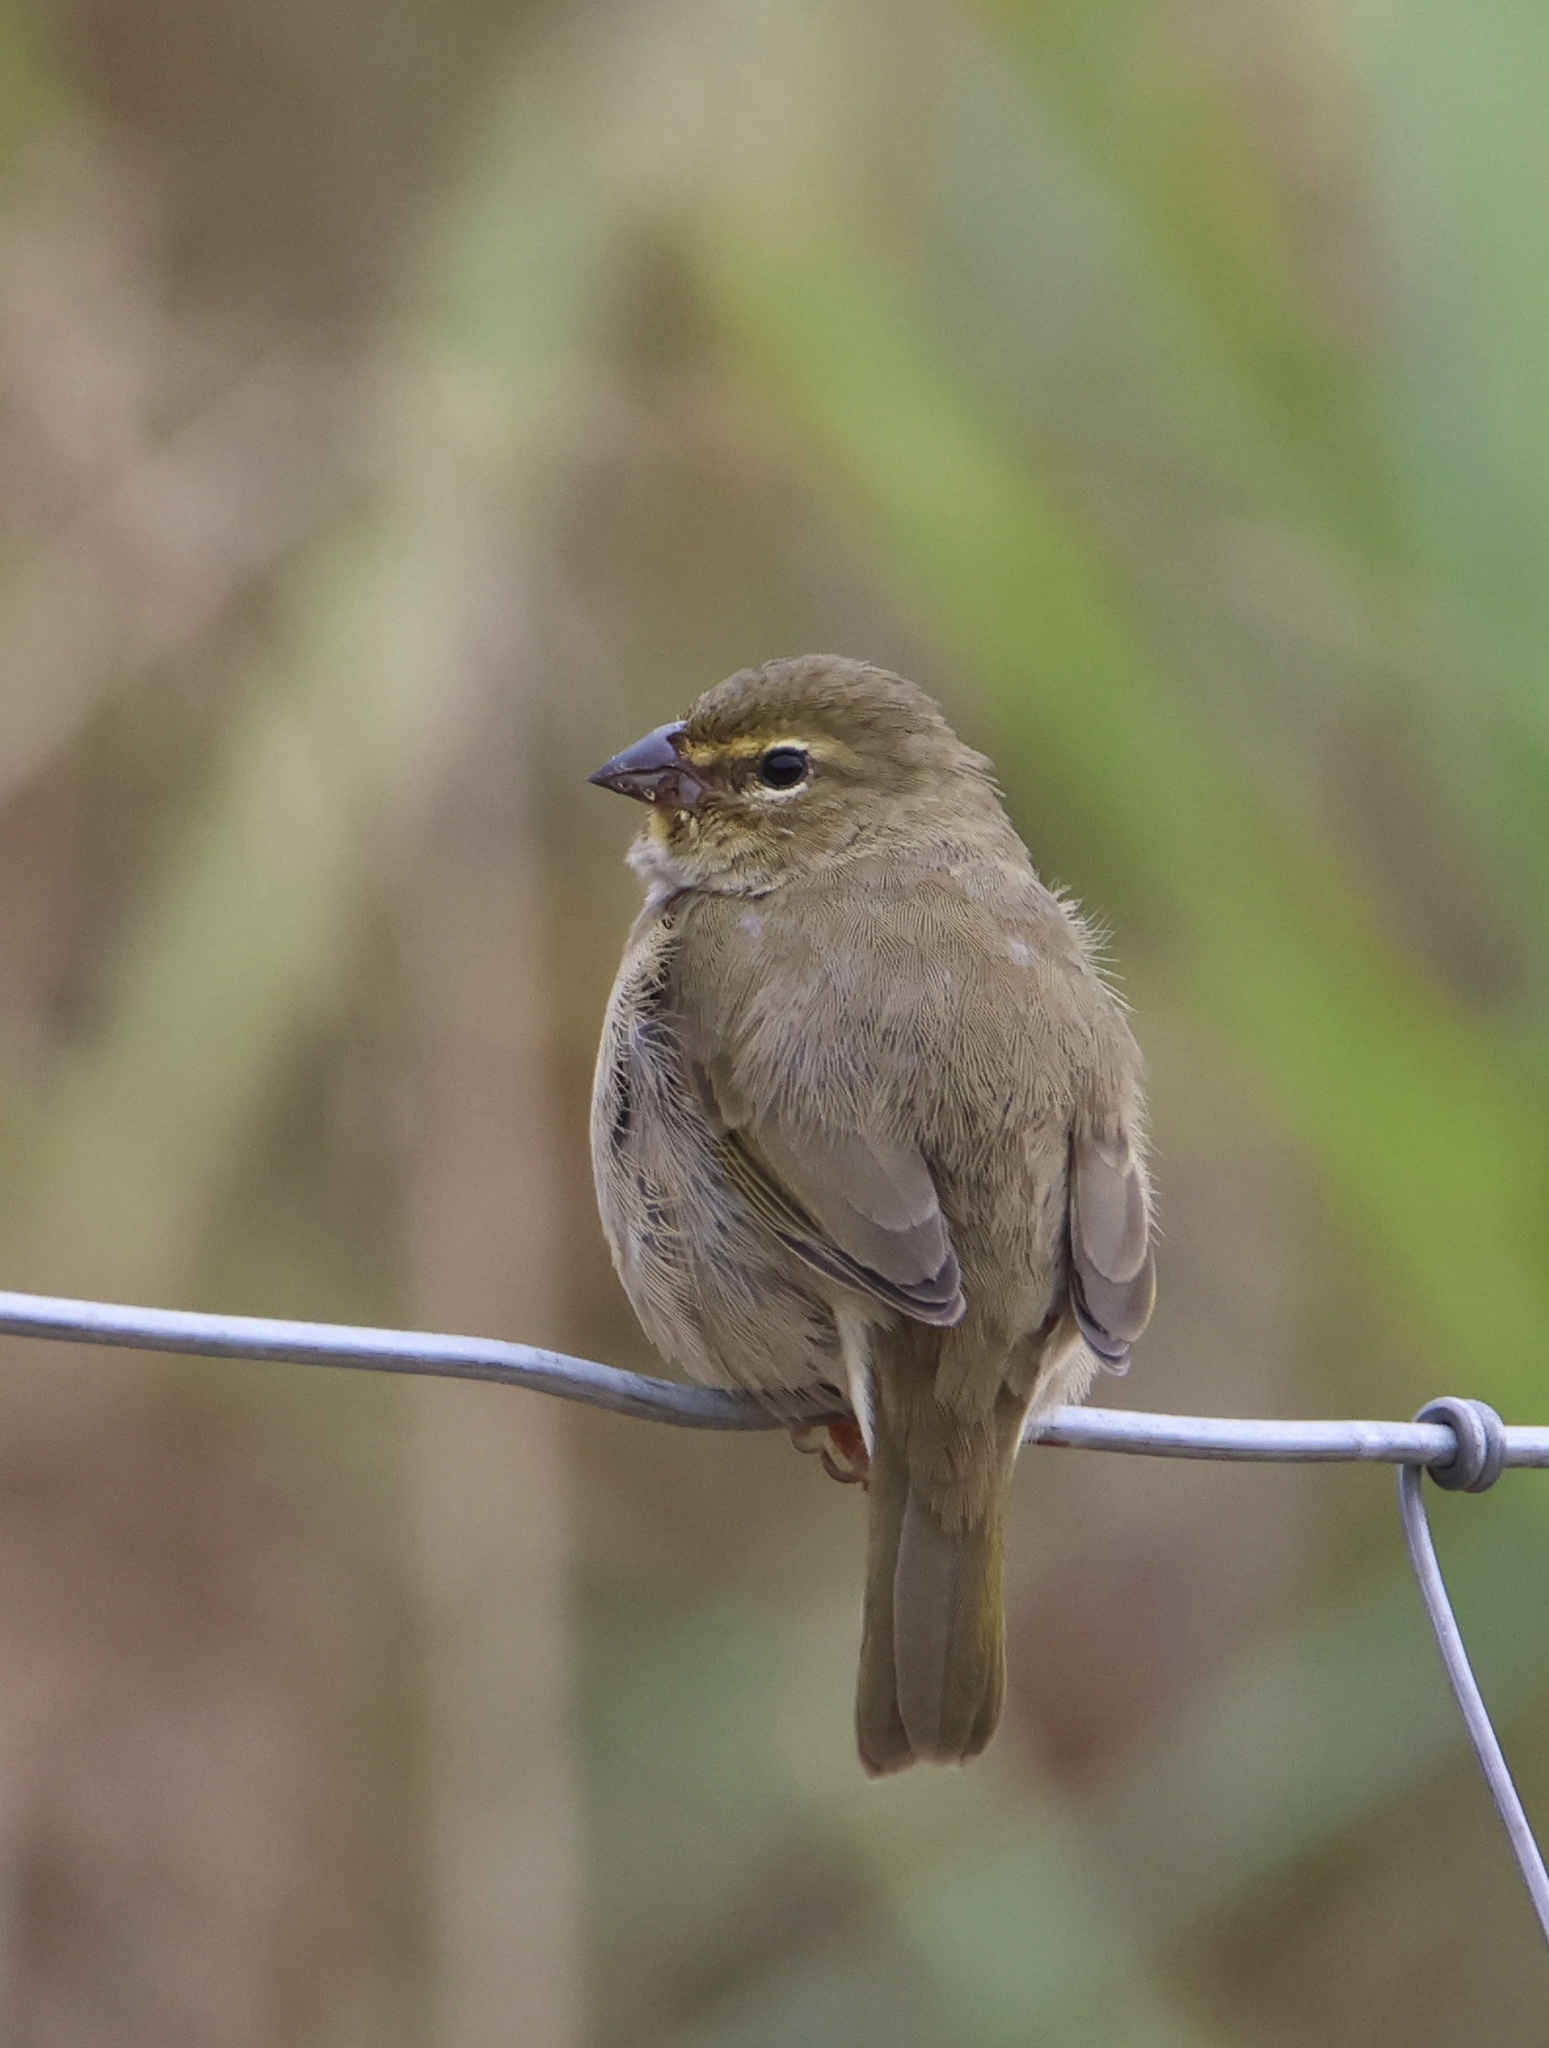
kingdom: Animalia
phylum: Chordata
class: Aves
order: Passeriformes
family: Thraupidae
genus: Tiaris
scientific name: Tiaris olivaceus
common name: Yellow-faced grassquit
